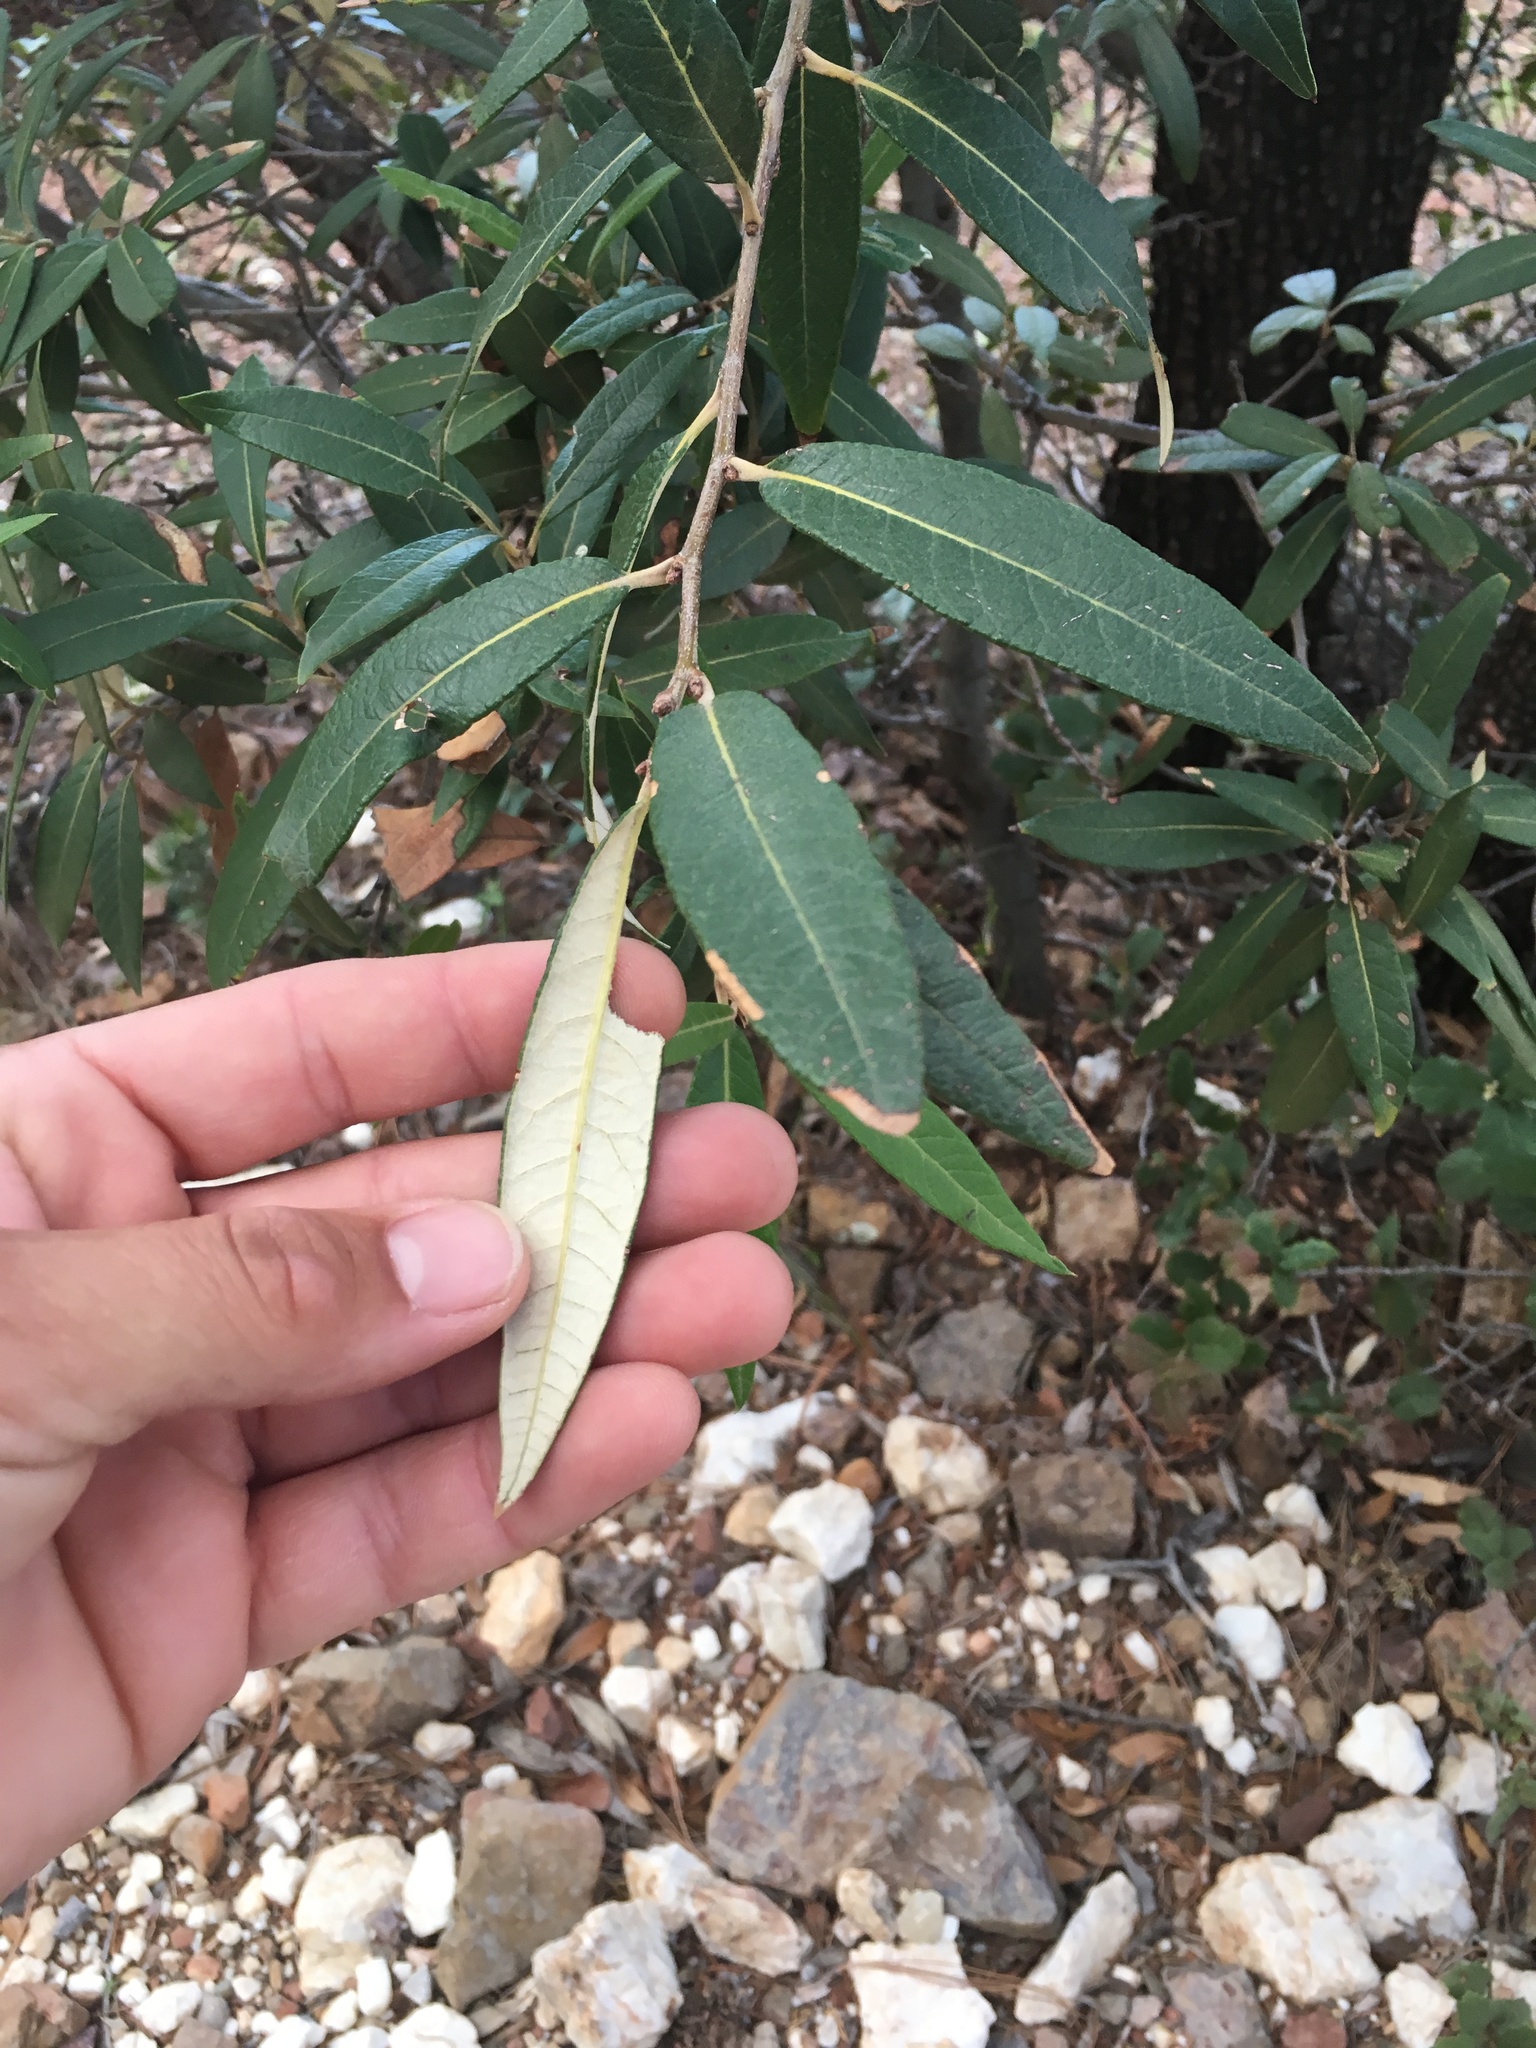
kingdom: Plantae
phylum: Tracheophyta
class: Magnoliopsida
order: Fagales
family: Fagaceae
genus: Quercus
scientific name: Quercus hypoleucoides
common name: Silverleaf oak
